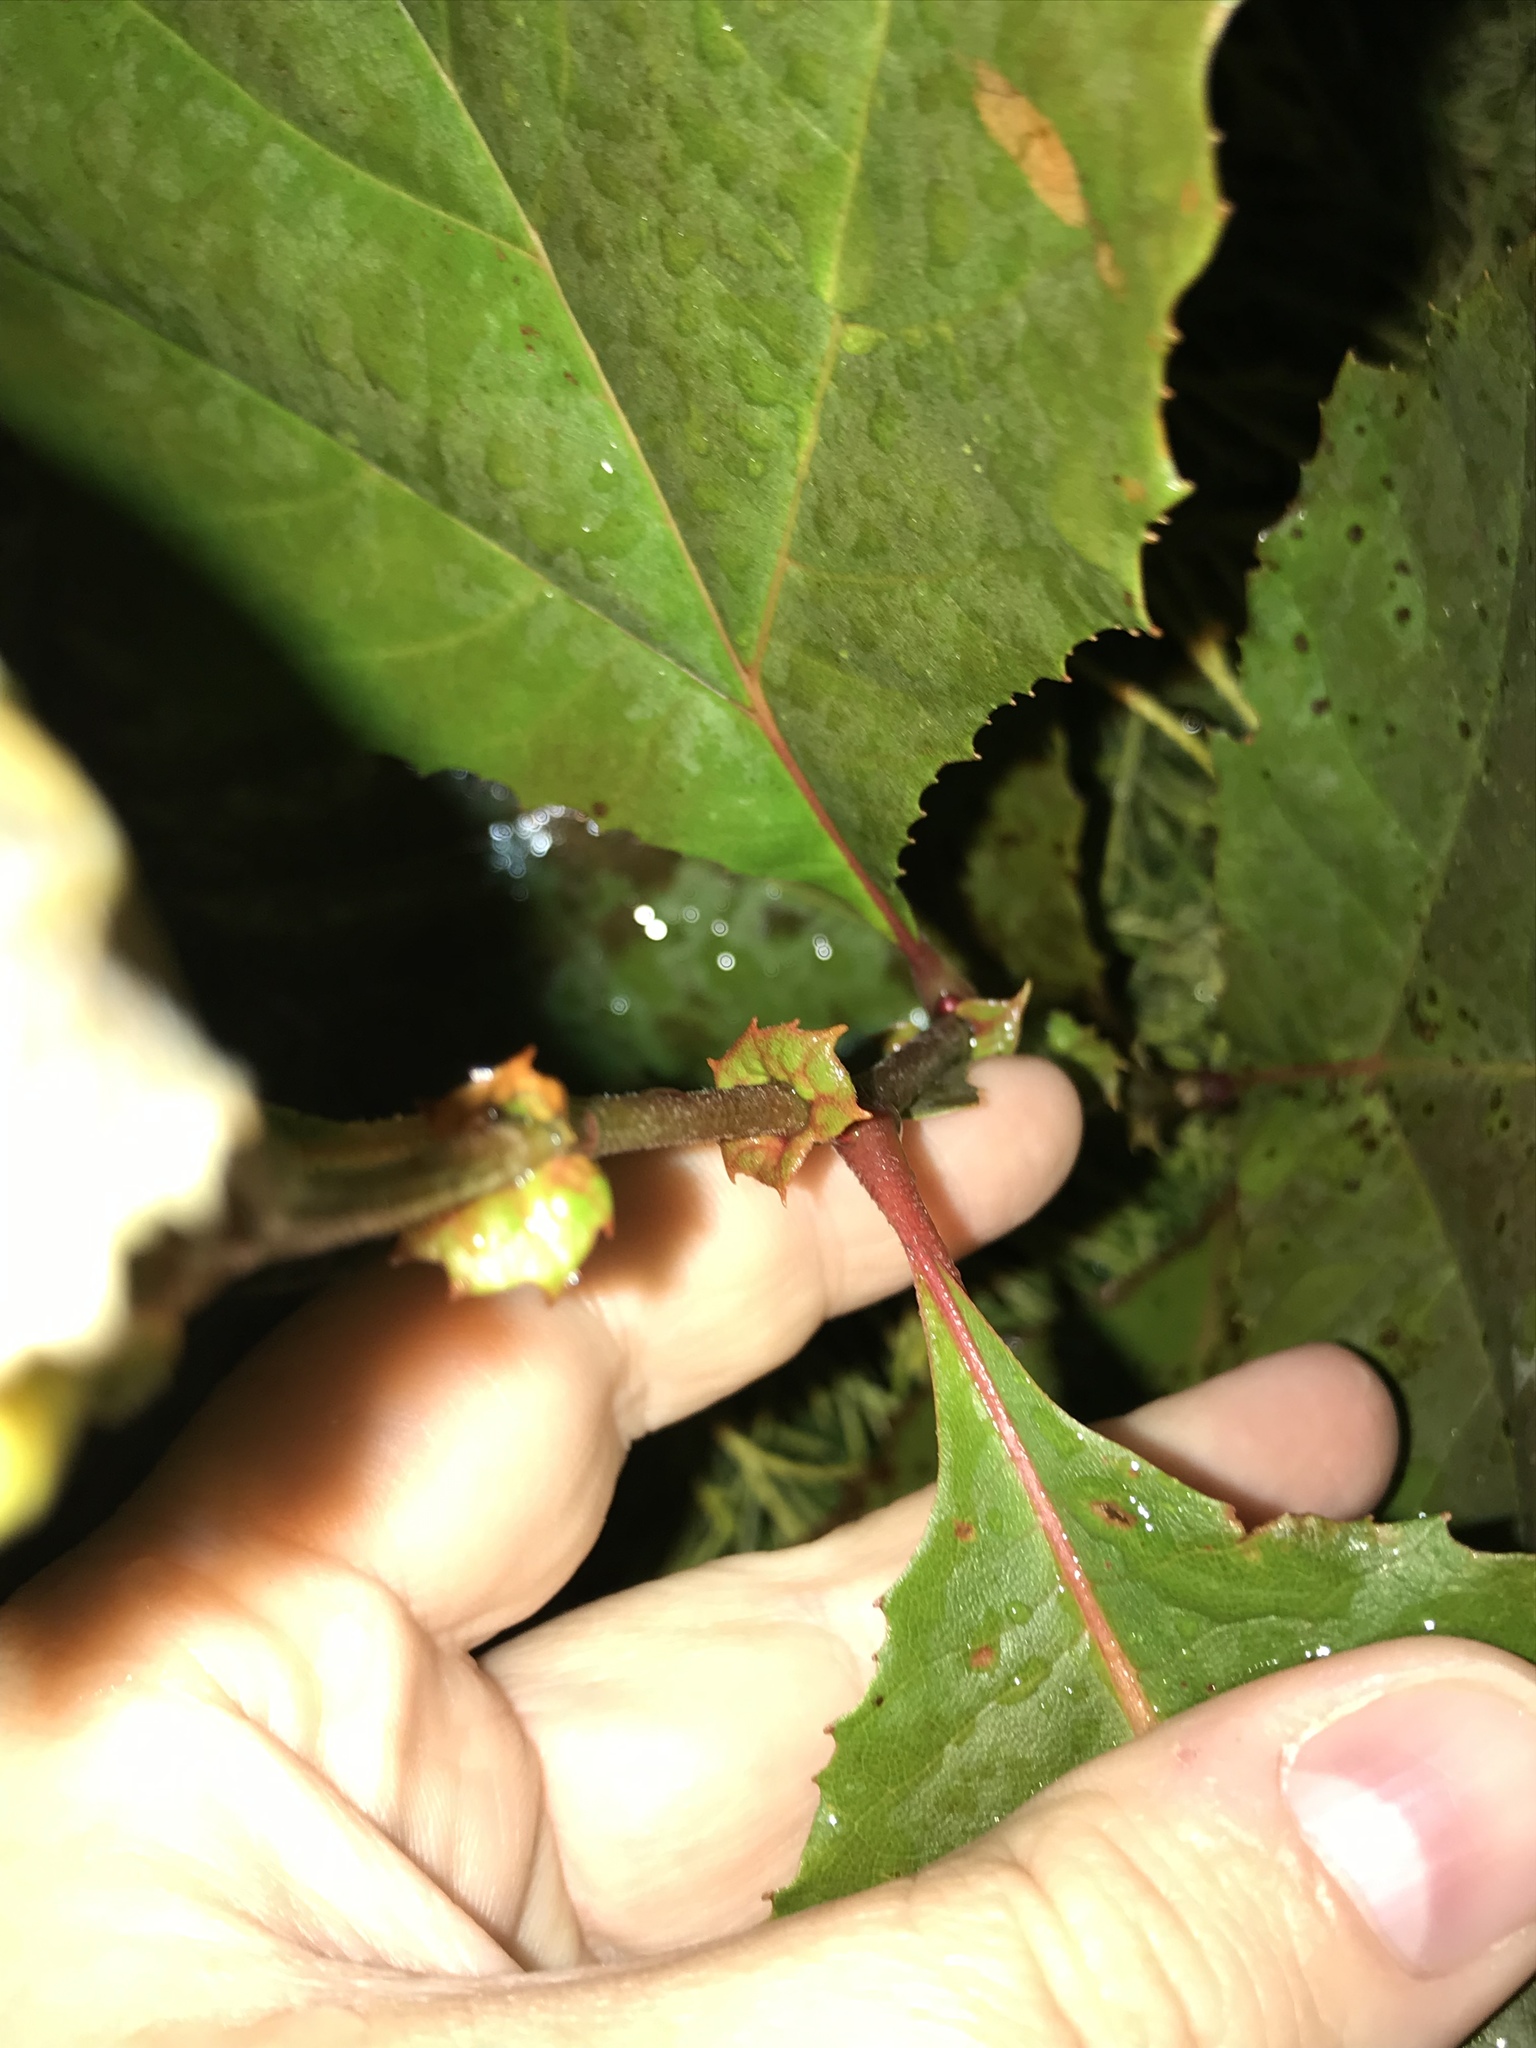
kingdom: Plantae
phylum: Tracheophyta
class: Magnoliopsida
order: Proteales
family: Platanaceae
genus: Platanus
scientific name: Platanus occidentalis
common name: American sycamore
